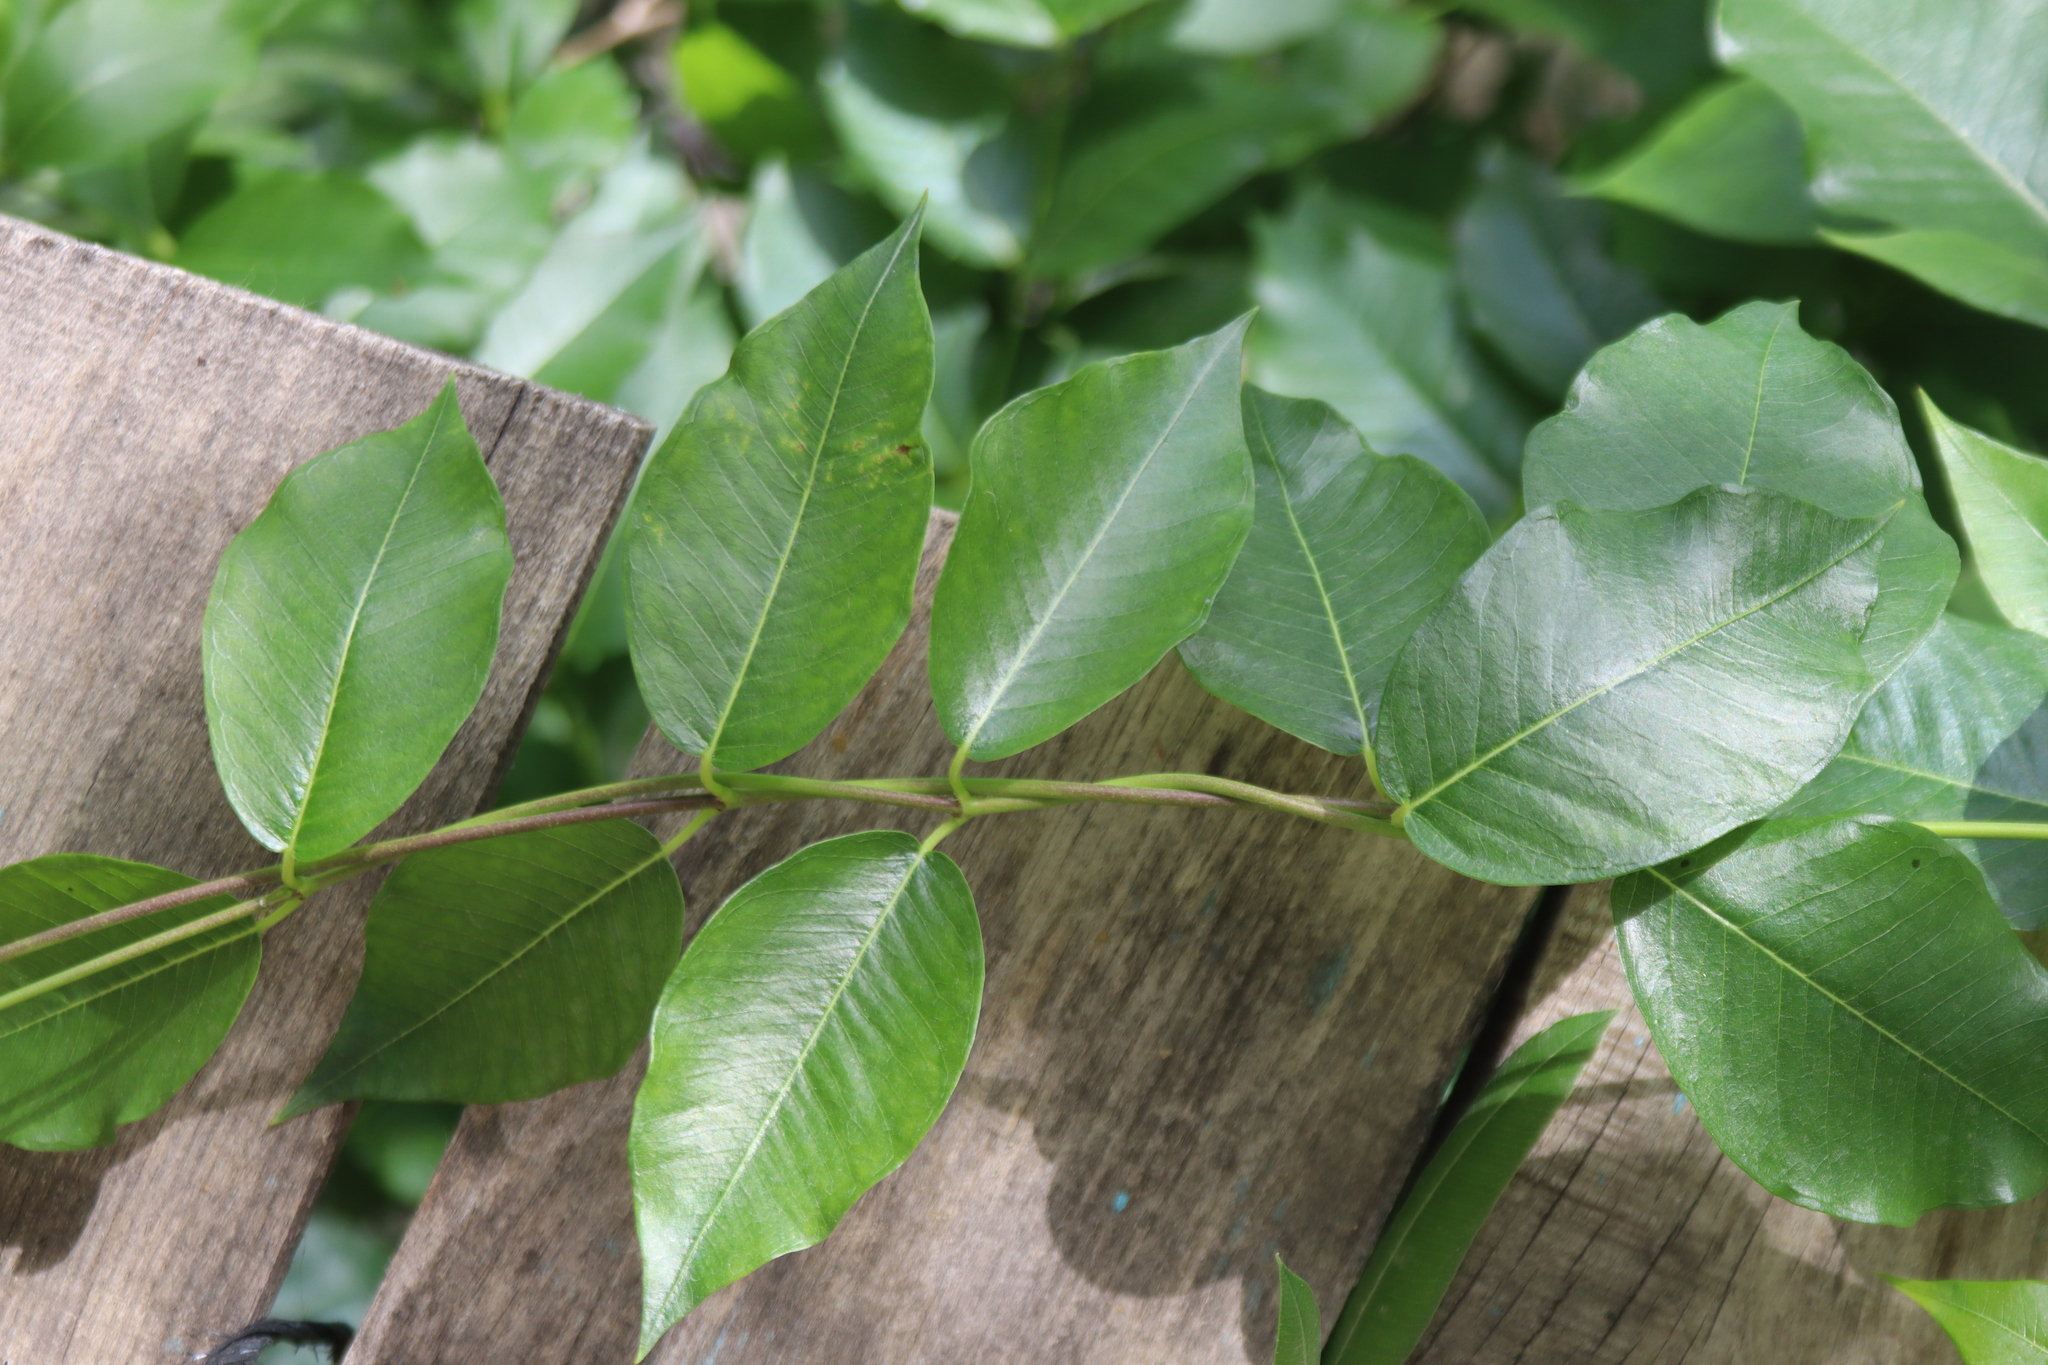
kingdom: Plantae
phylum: Tracheophyta
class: Magnoliopsida
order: Gentianales
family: Apocynaceae
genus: Periploca
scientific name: Periploca graeca
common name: Silkvine
